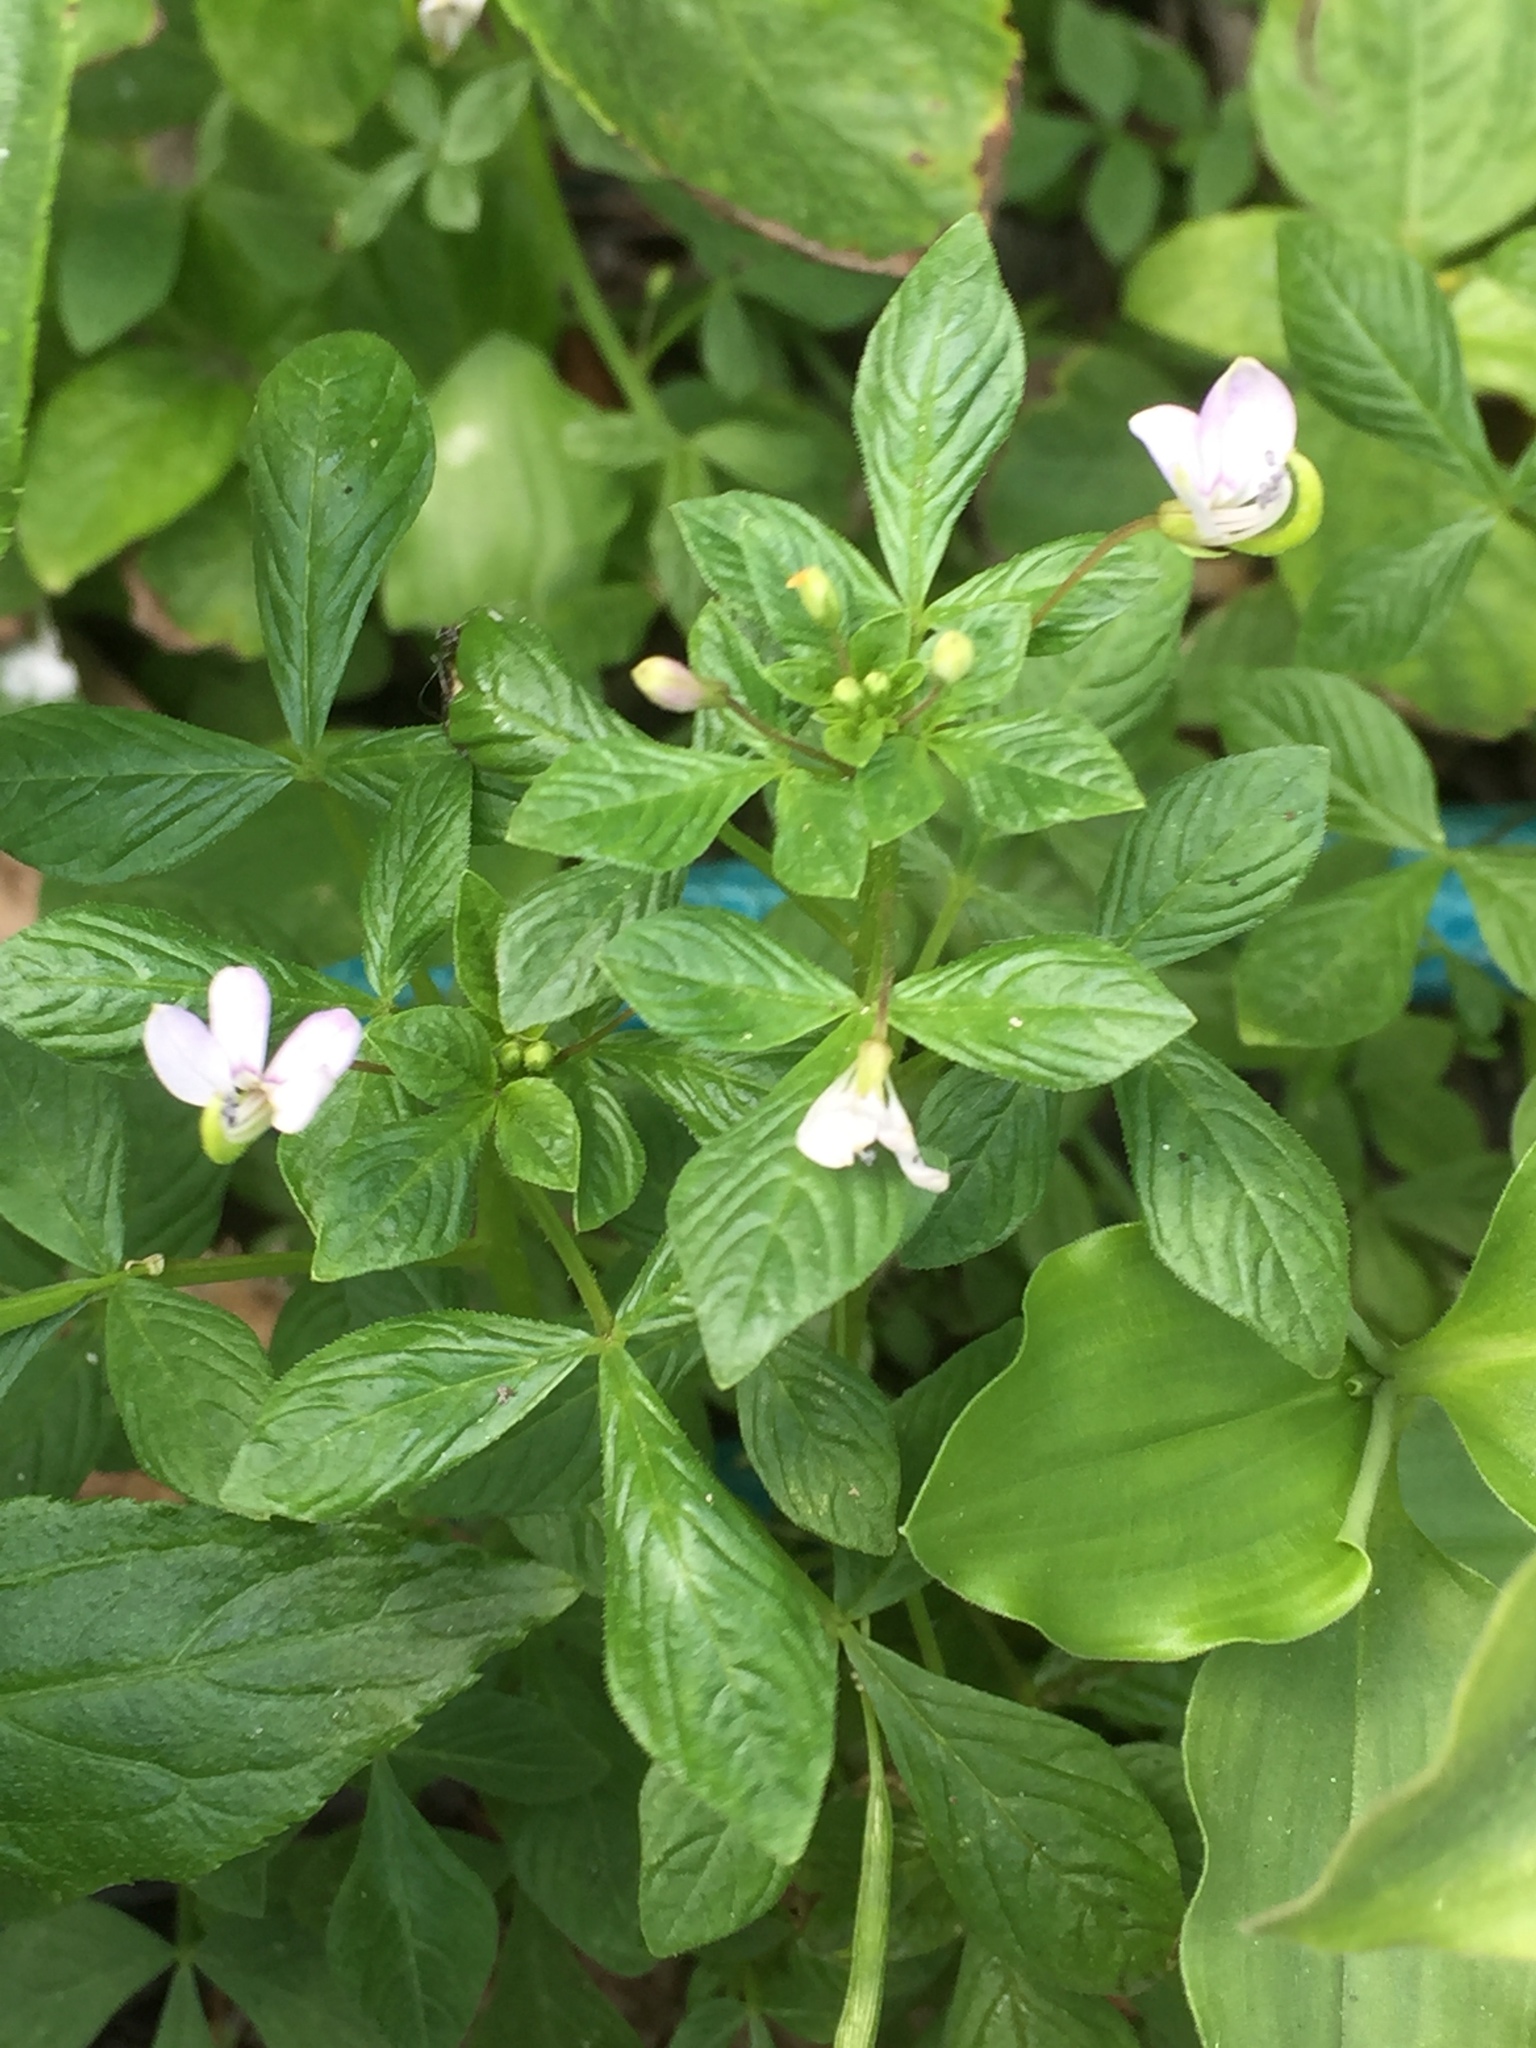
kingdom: Plantae
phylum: Tracheophyta
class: Magnoliopsida
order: Brassicales
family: Cleomaceae
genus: Sieruela
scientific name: Sieruela rutidosperma
